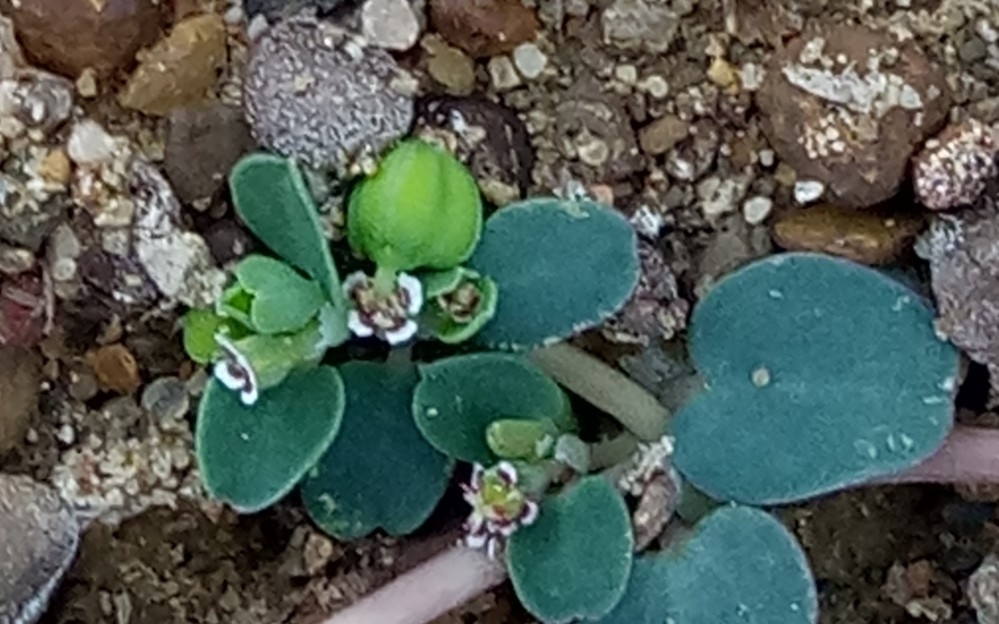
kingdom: Plantae
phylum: Tracheophyta
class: Magnoliopsida
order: Malpighiales
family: Euphorbiaceae
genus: Euphorbia
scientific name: Euphorbia serpens
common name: Matted sandmat
